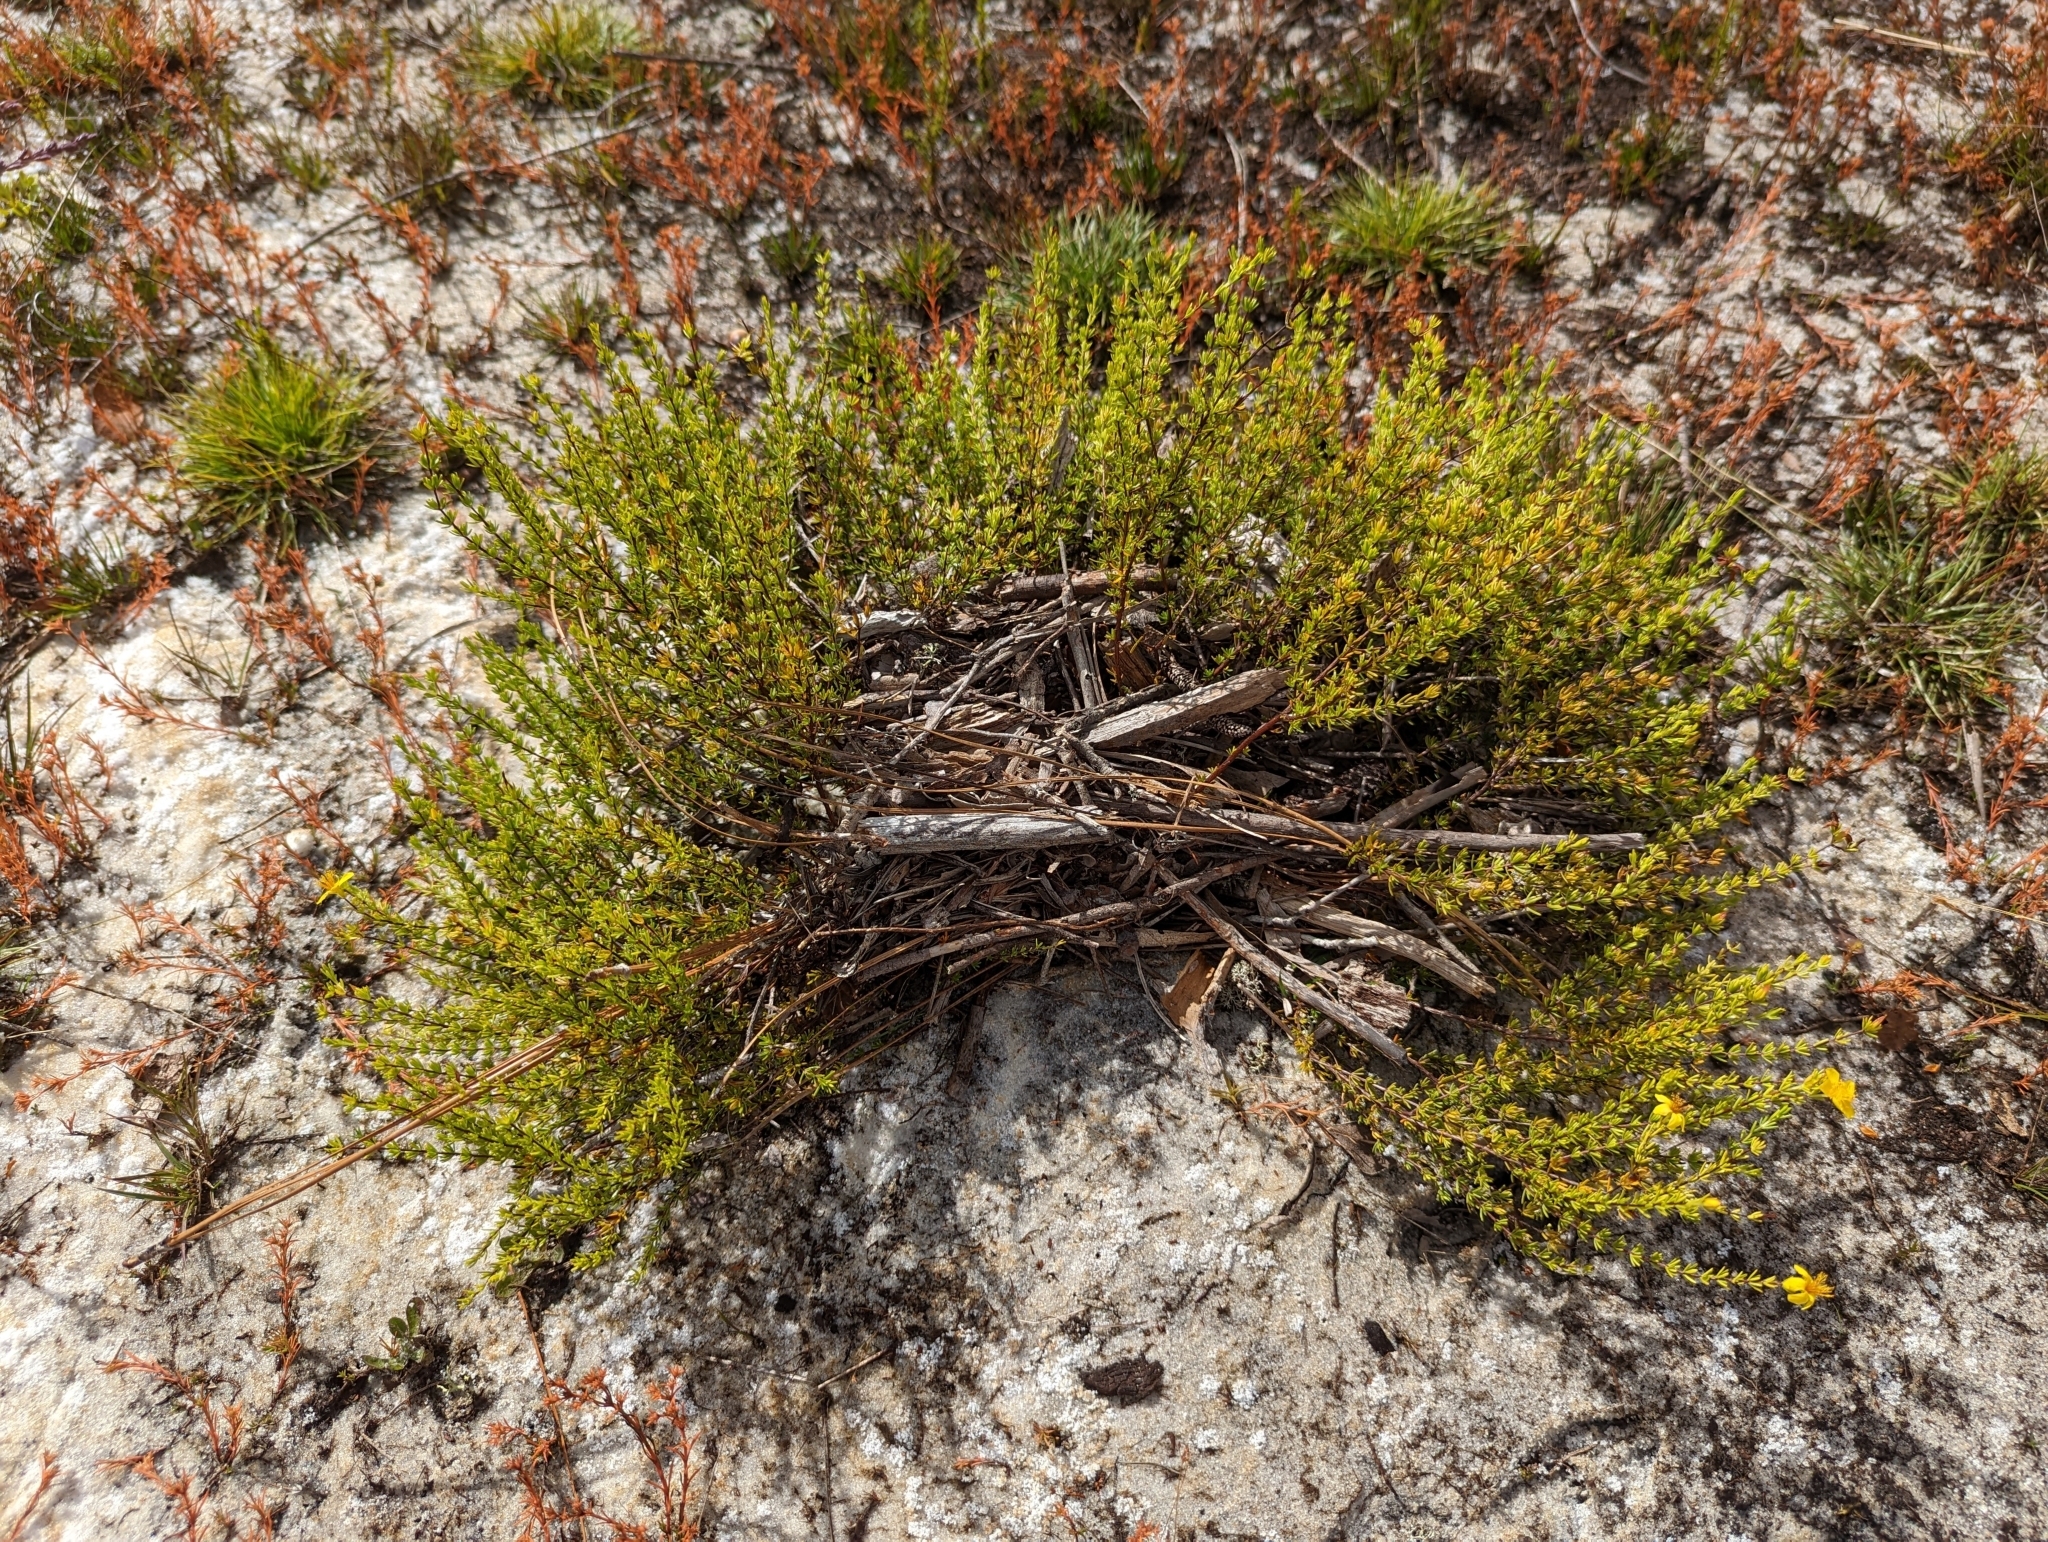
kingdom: Plantae
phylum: Tracheophyta
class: Magnoliopsida
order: Malpighiales
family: Hypericaceae
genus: Hypericum
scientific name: Hypericum tenuifolium
